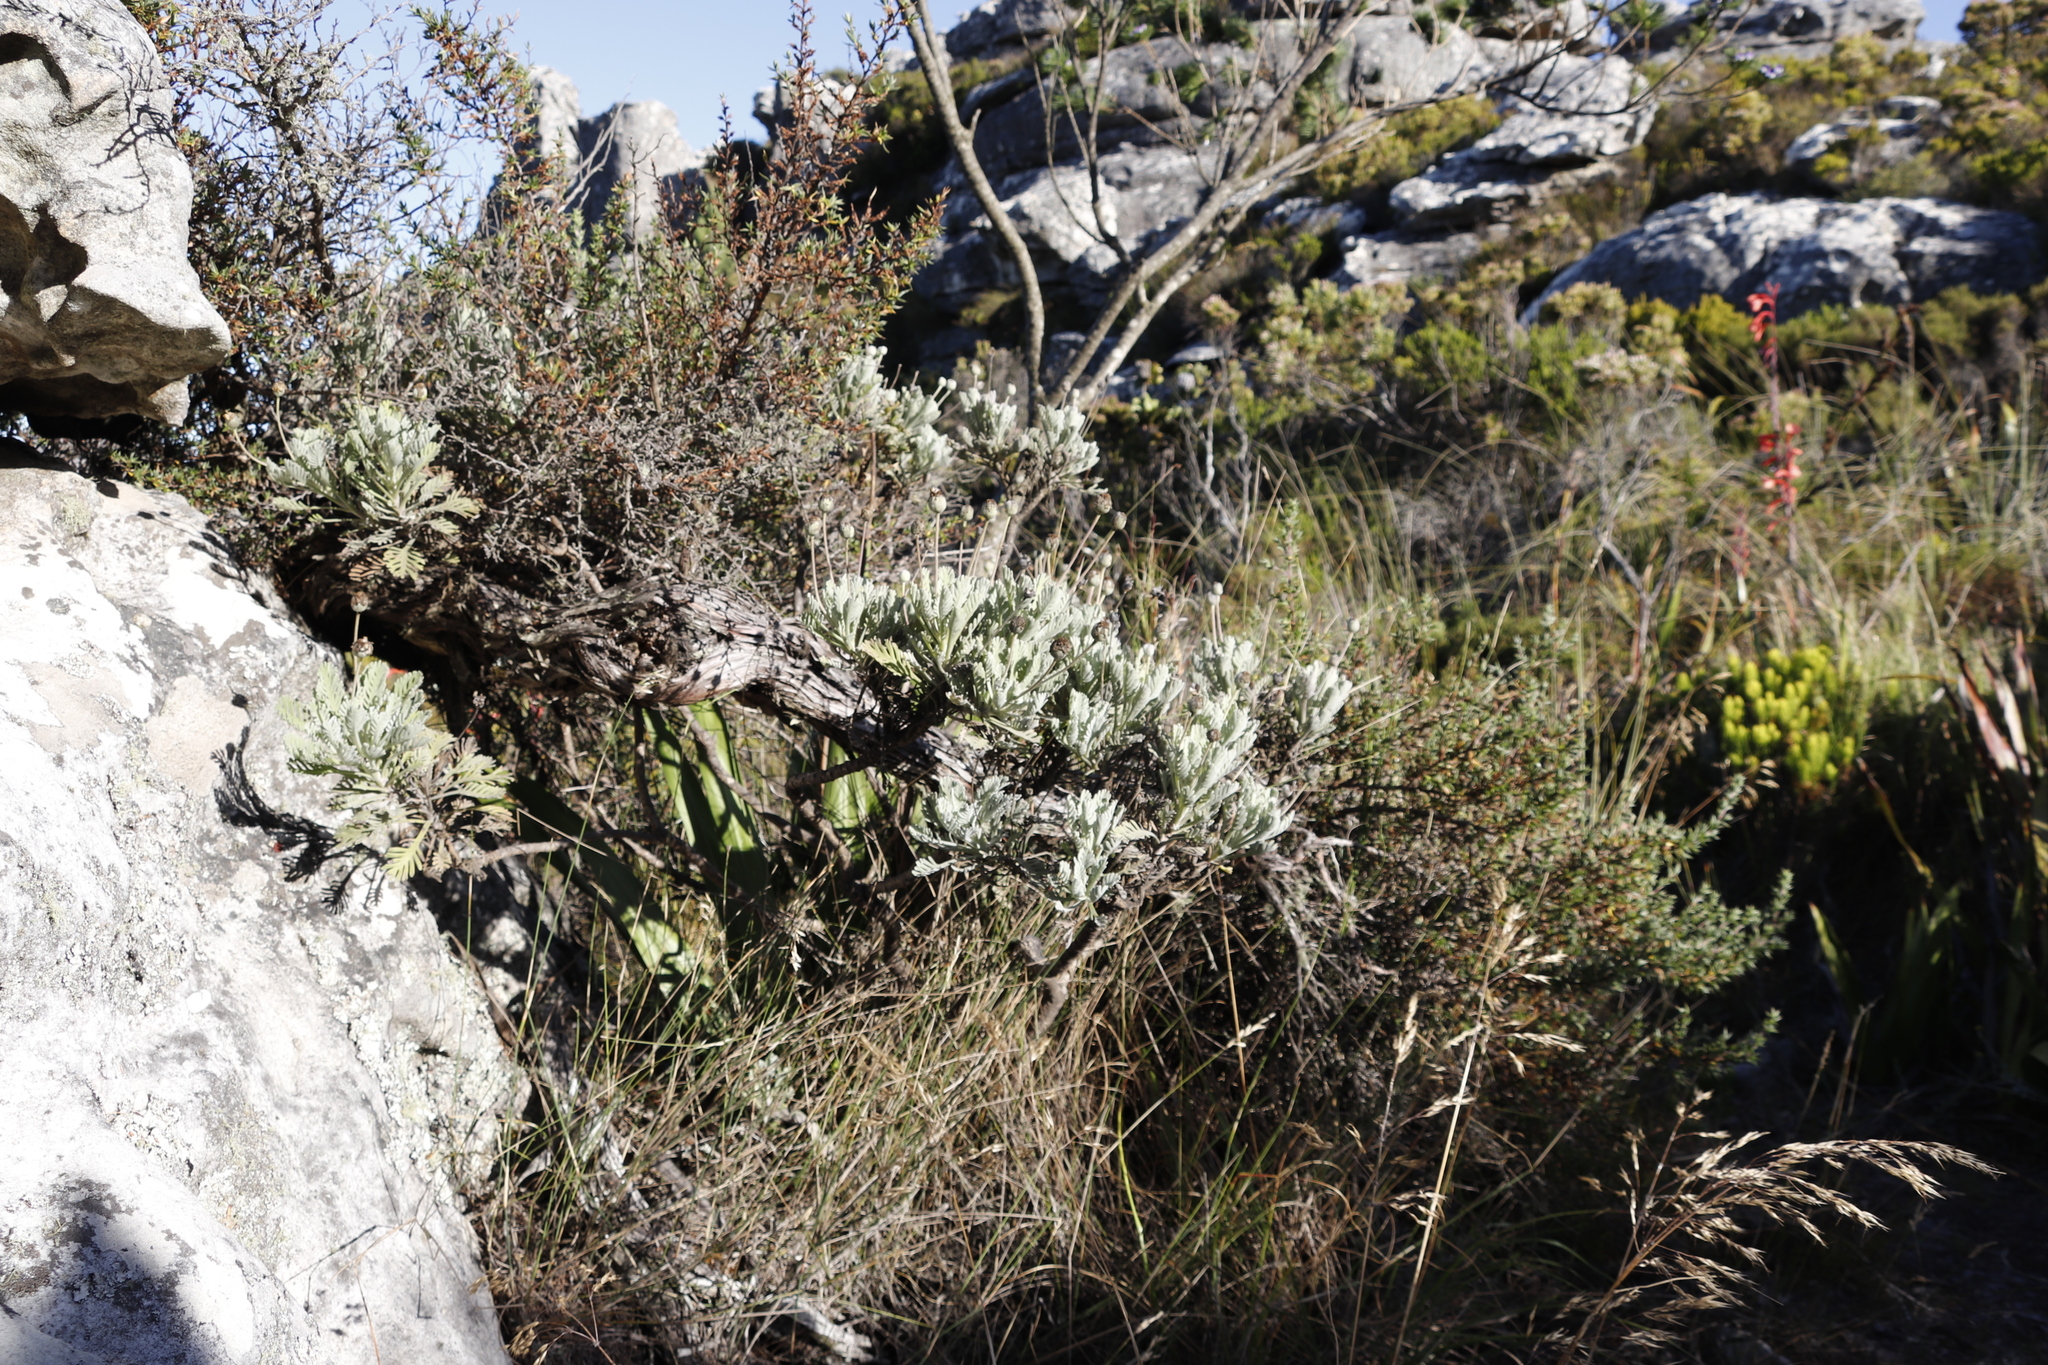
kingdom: Plantae
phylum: Tracheophyta
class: Magnoliopsida
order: Asterales
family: Asteraceae
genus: Euryops
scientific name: Euryops pectinatus
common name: Gray-leaf euryops
